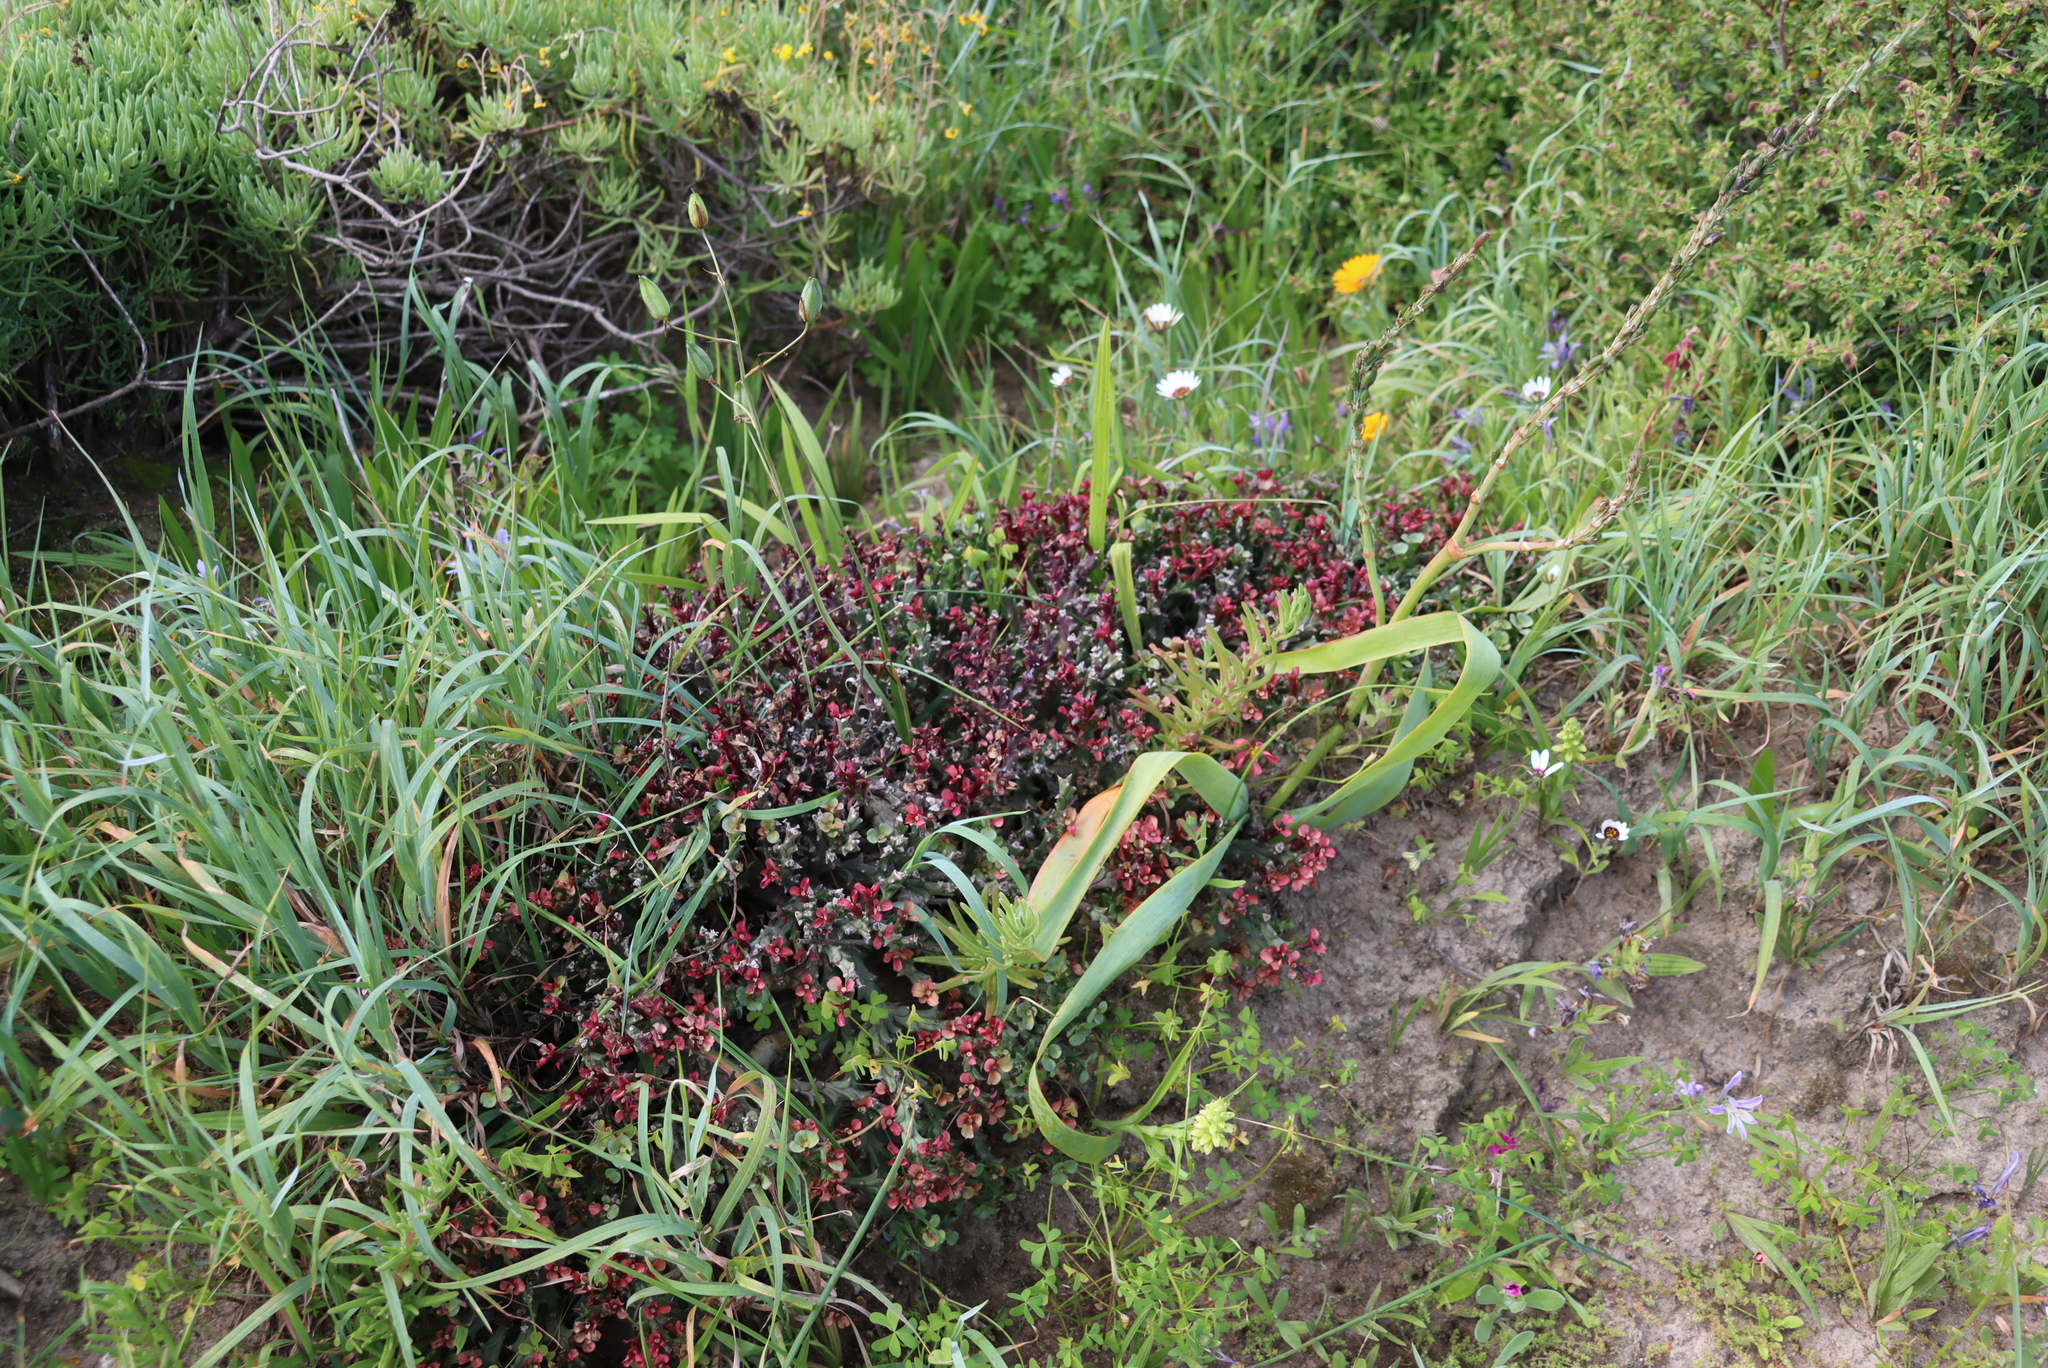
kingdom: Plantae
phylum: Tracheophyta
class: Magnoliopsida
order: Malpighiales
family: Euphorbiaceae
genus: Euphorbia
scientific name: Euphorbia hamata
